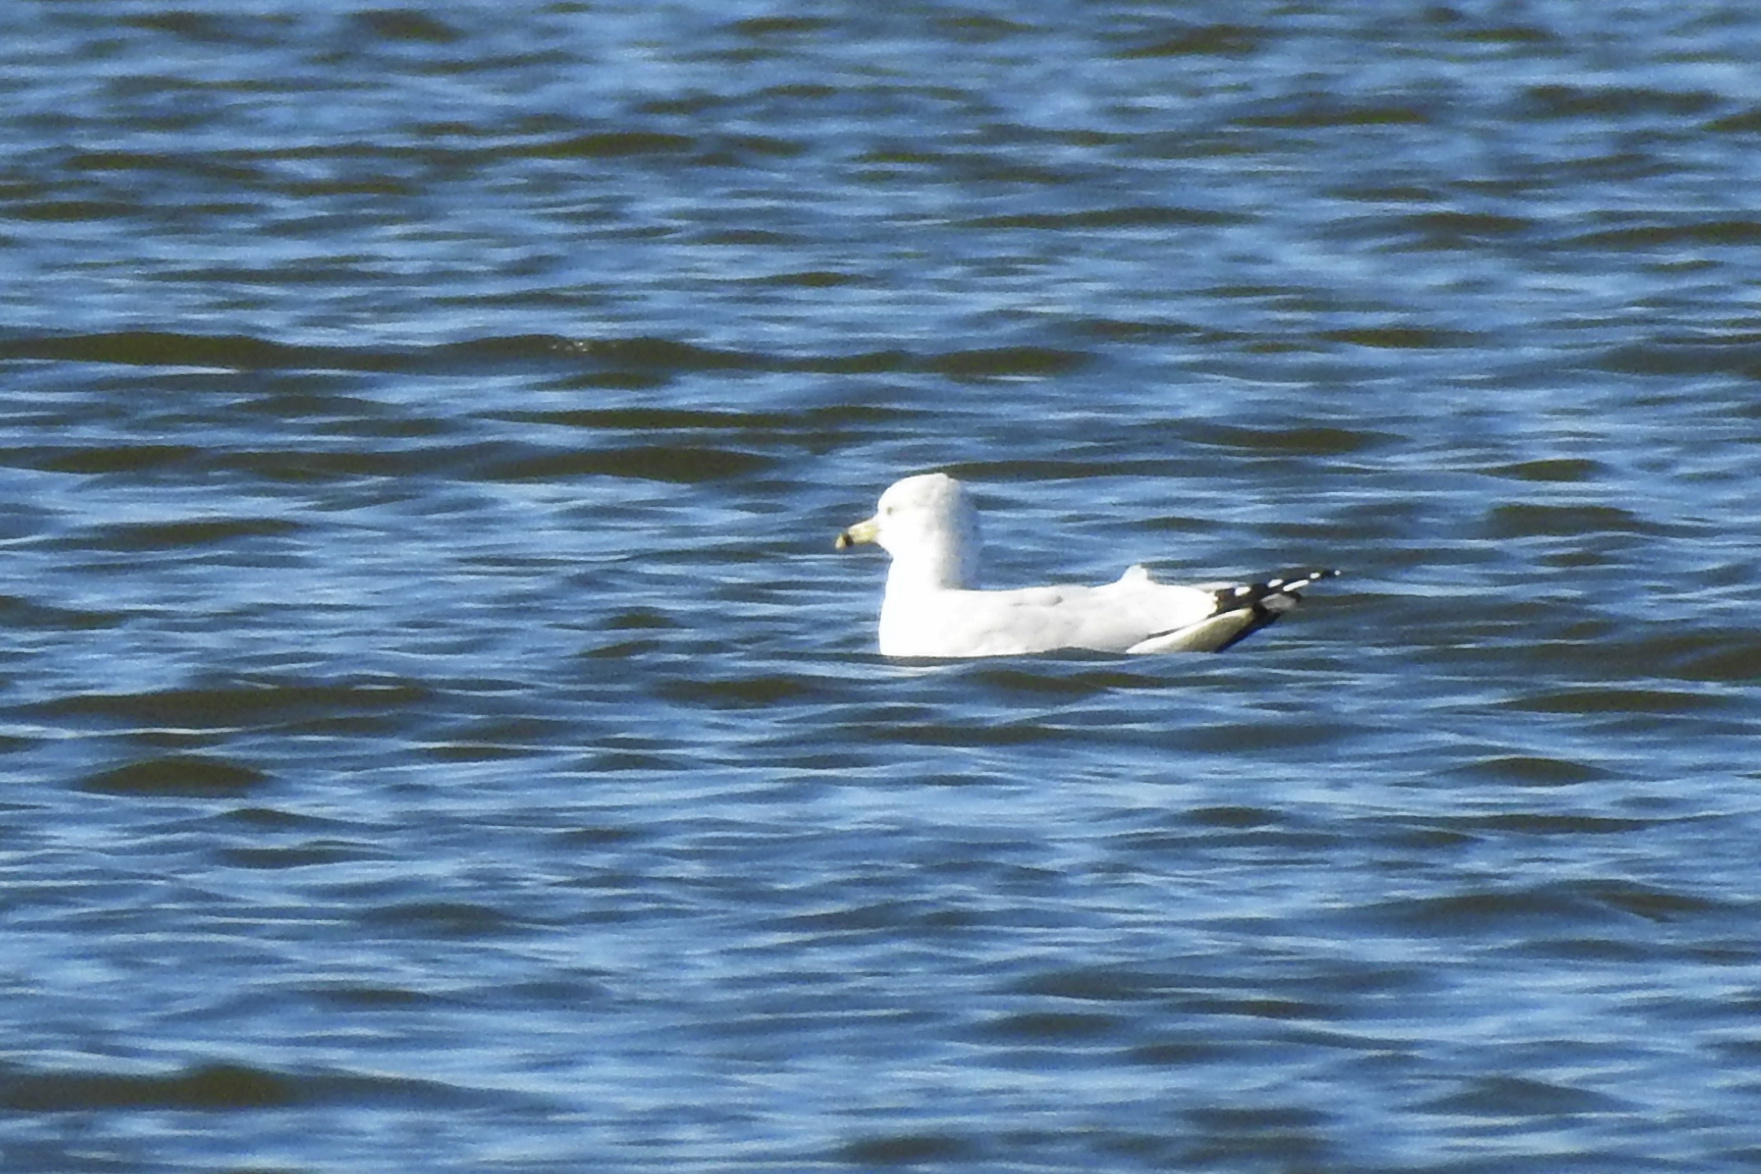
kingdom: Animalia
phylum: Chordata
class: Aves
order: Charadriiformes
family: Laridae
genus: Larus
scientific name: Larus delawarensis
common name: Ring-billed gull
